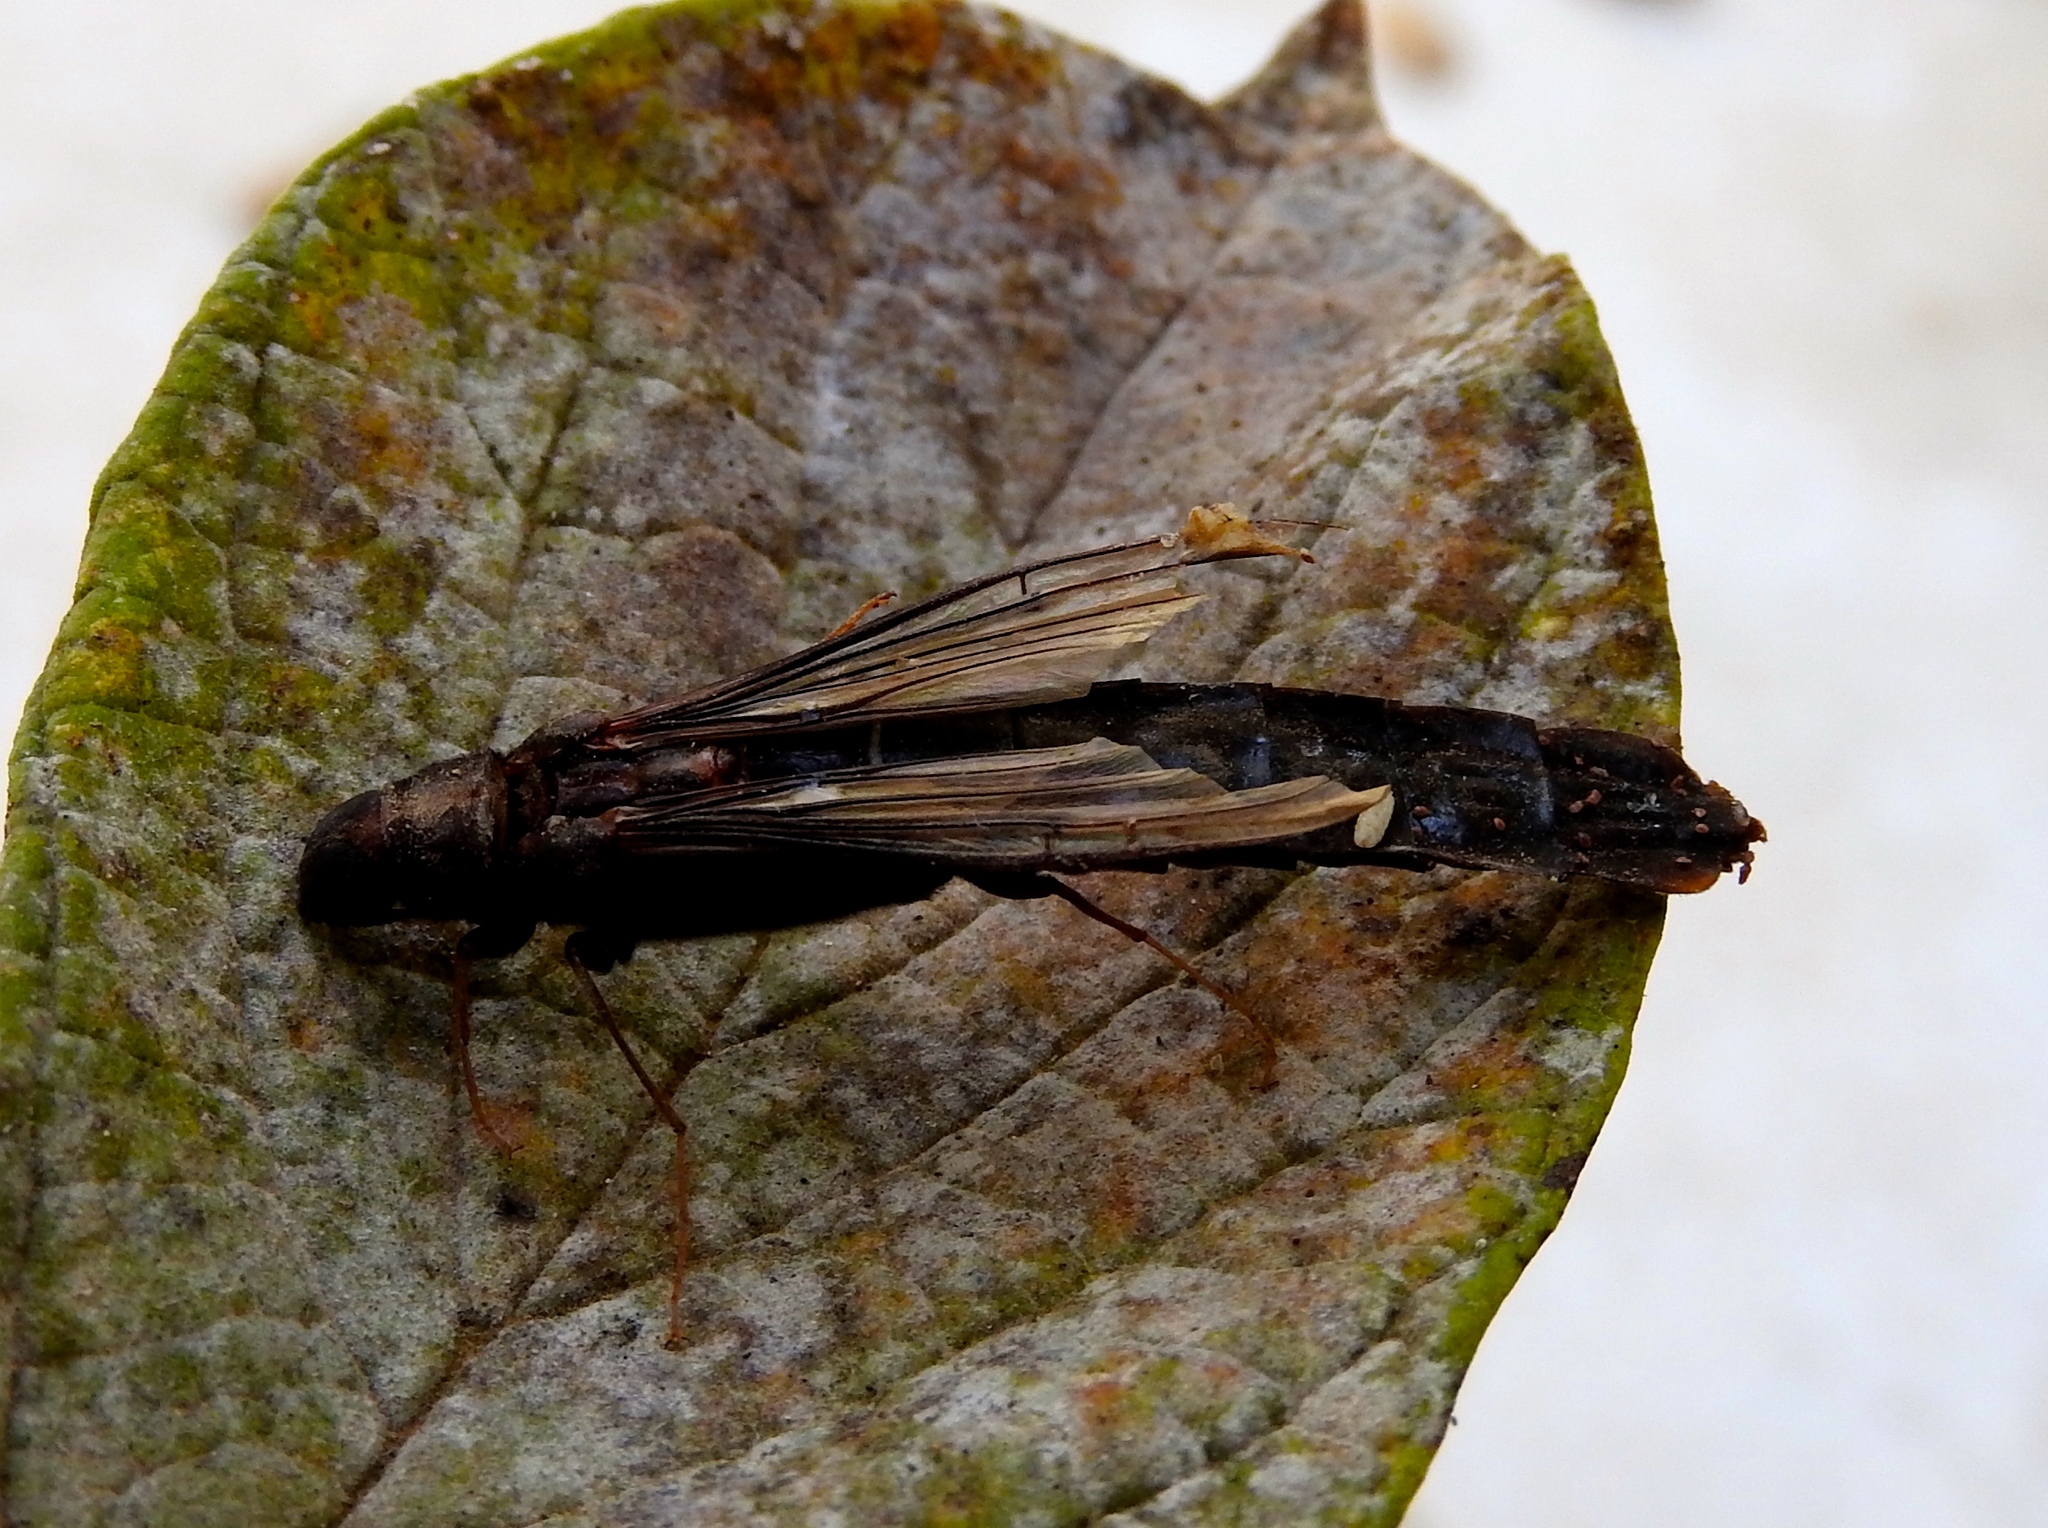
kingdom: Animalia
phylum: Arthropoda
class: Insecta
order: Coleoptera
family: Lymexylidae
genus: Atractocerus
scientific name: Atractocerus brasiliensis
